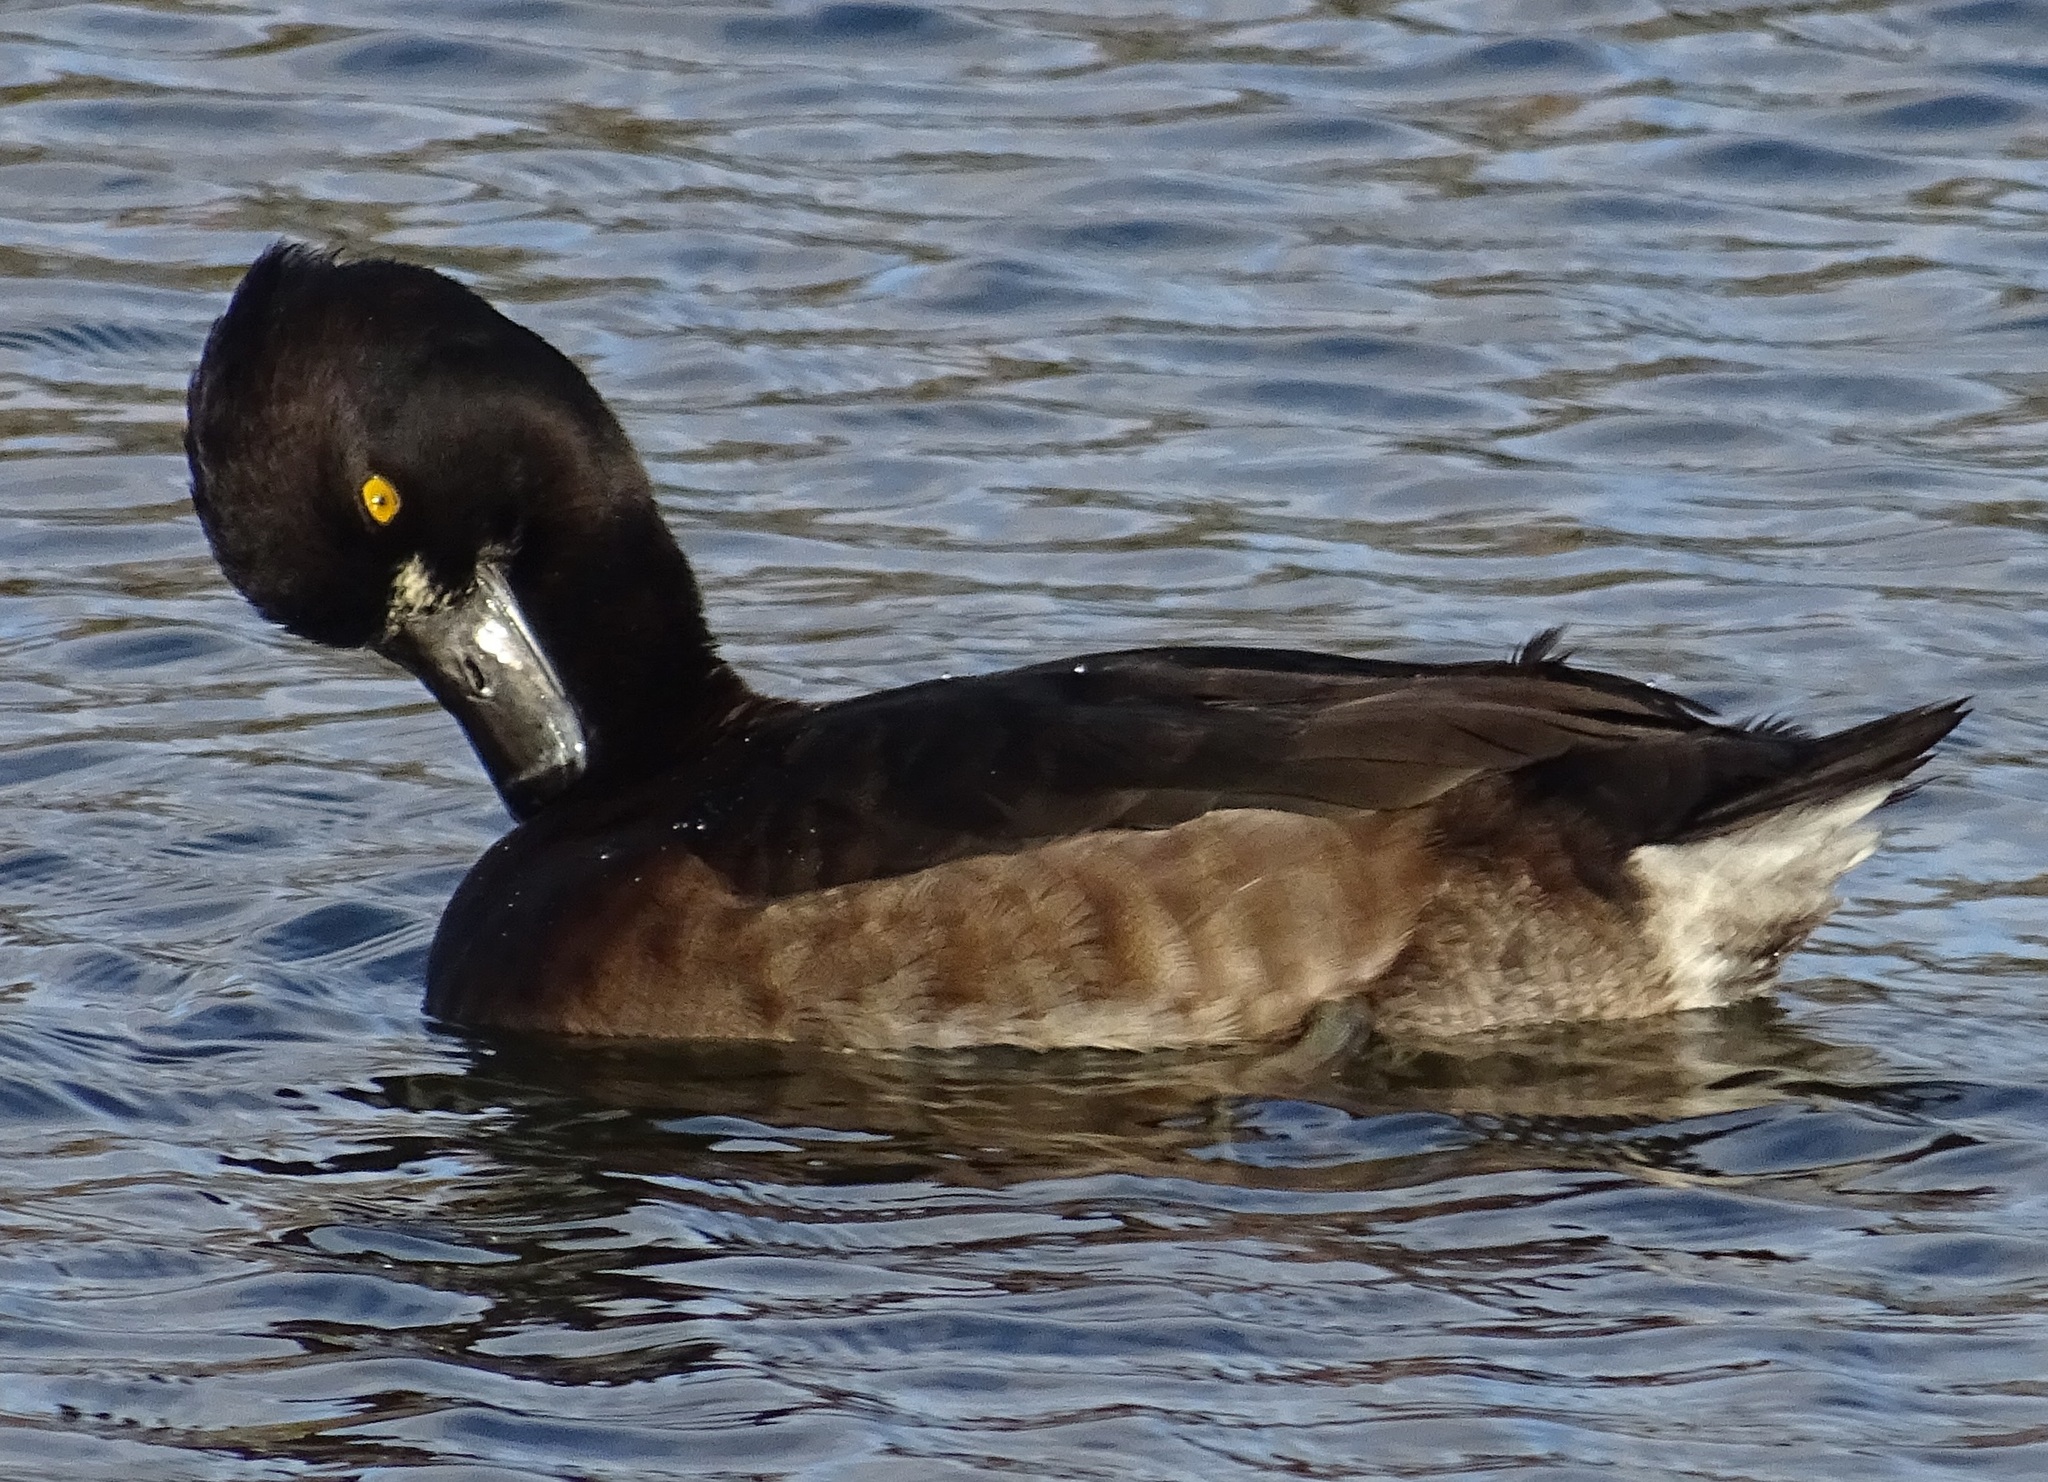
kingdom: Animalia
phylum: Chordata
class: Aves
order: Anseriformes
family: Anatidae
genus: Aythya
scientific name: Aythya fuligula
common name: Tufted duck
